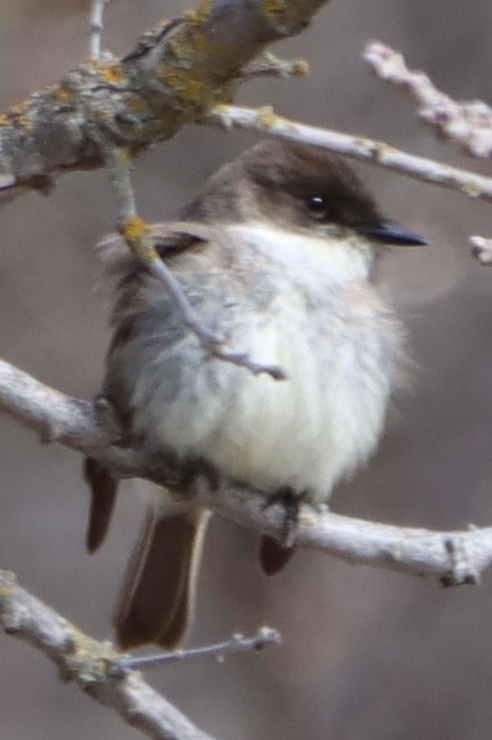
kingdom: Animalia
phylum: Chordata
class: Aves
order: Passeriformes
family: Tyrannidae
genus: Sayornis
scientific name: Sayornis phoebe
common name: Eastern phoebe
